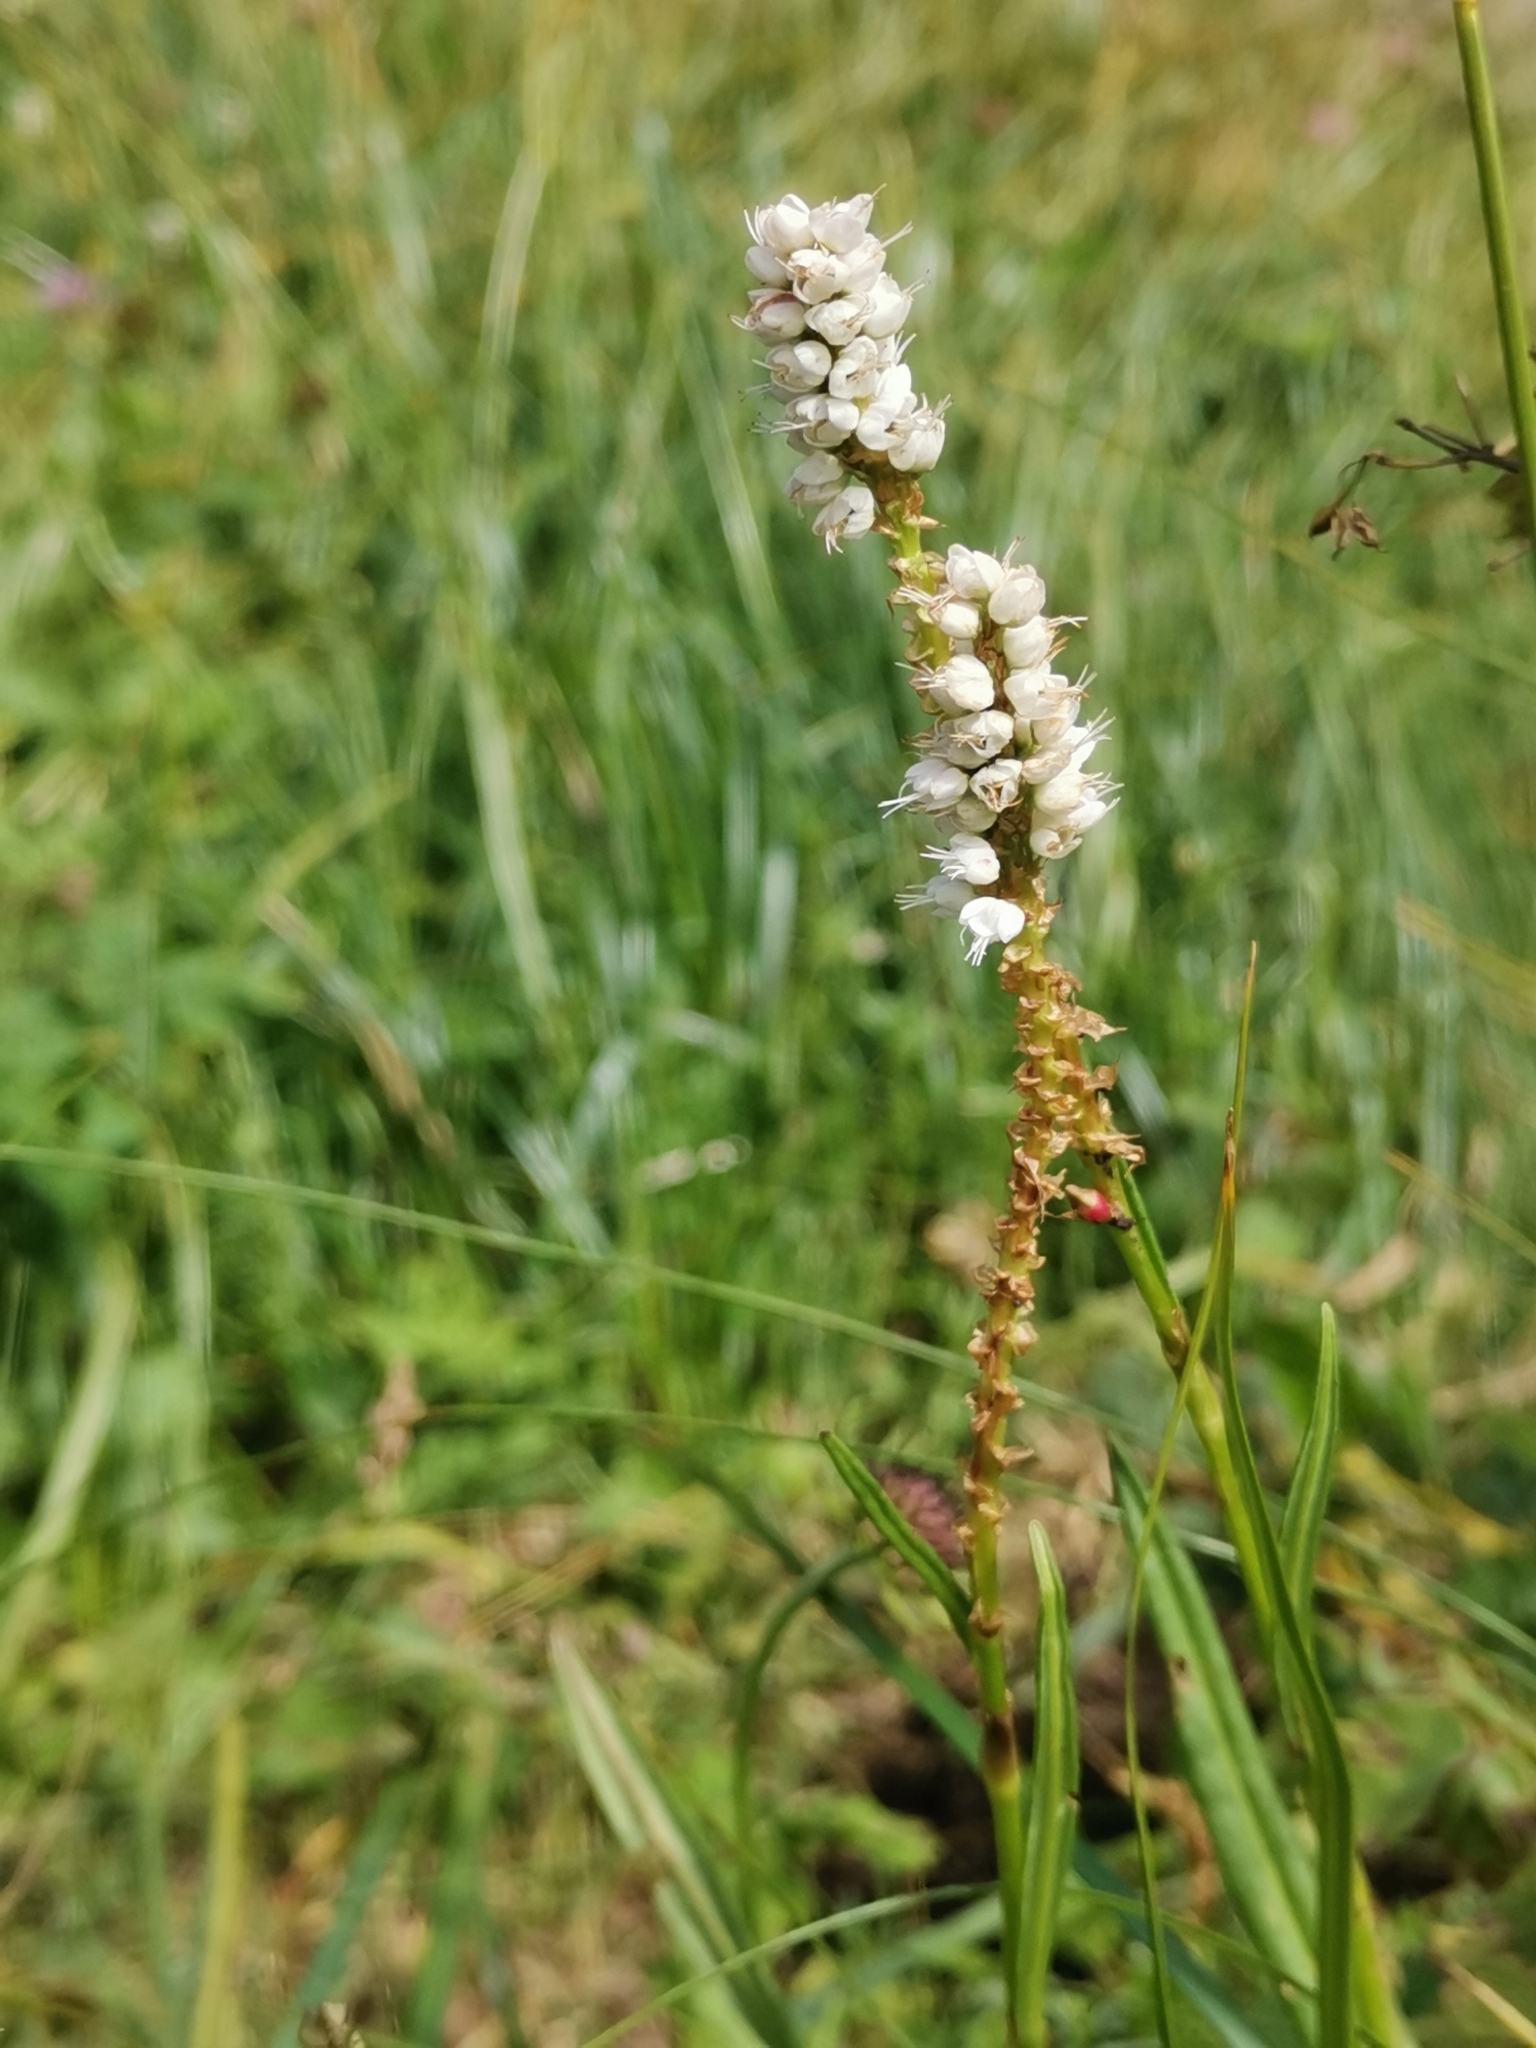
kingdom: Plantae
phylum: Tracheophyta
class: Magnoliopsida
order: Caryophyllales
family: Polygonaceae
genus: Bistorta
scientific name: Bistorta vivipara
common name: Alpine bistort
